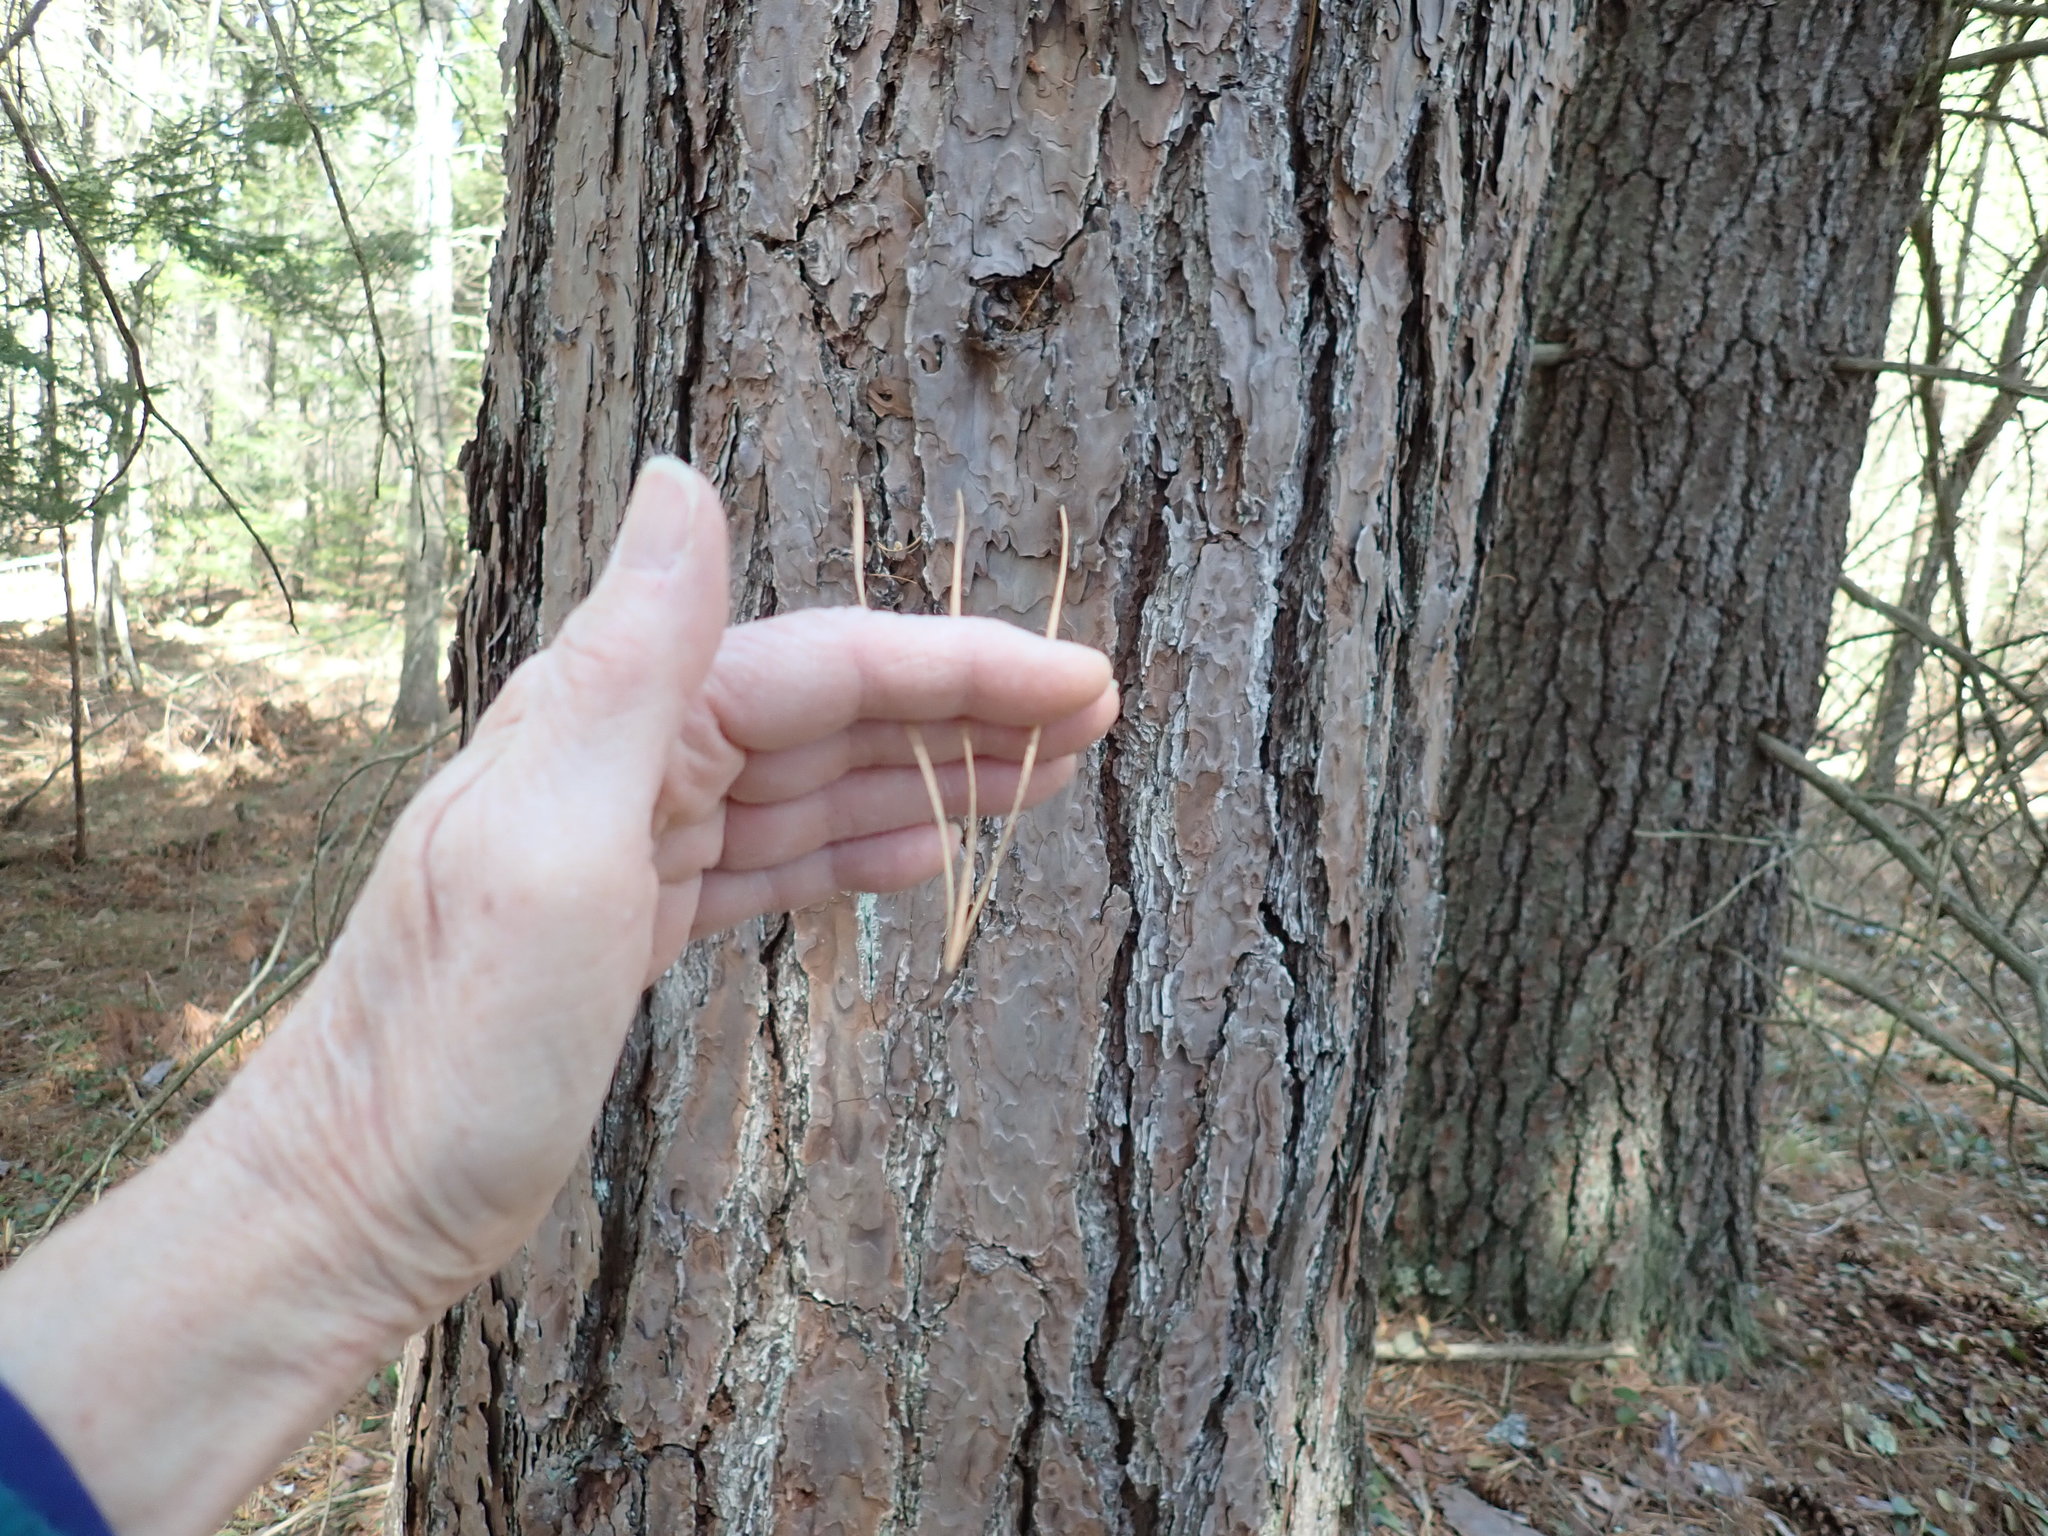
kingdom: Plantae
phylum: Tracheophyta
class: Pinopsida
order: Pinales
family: Pinaceae
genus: Pinus
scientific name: Pinus rigida
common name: Pitch pine
